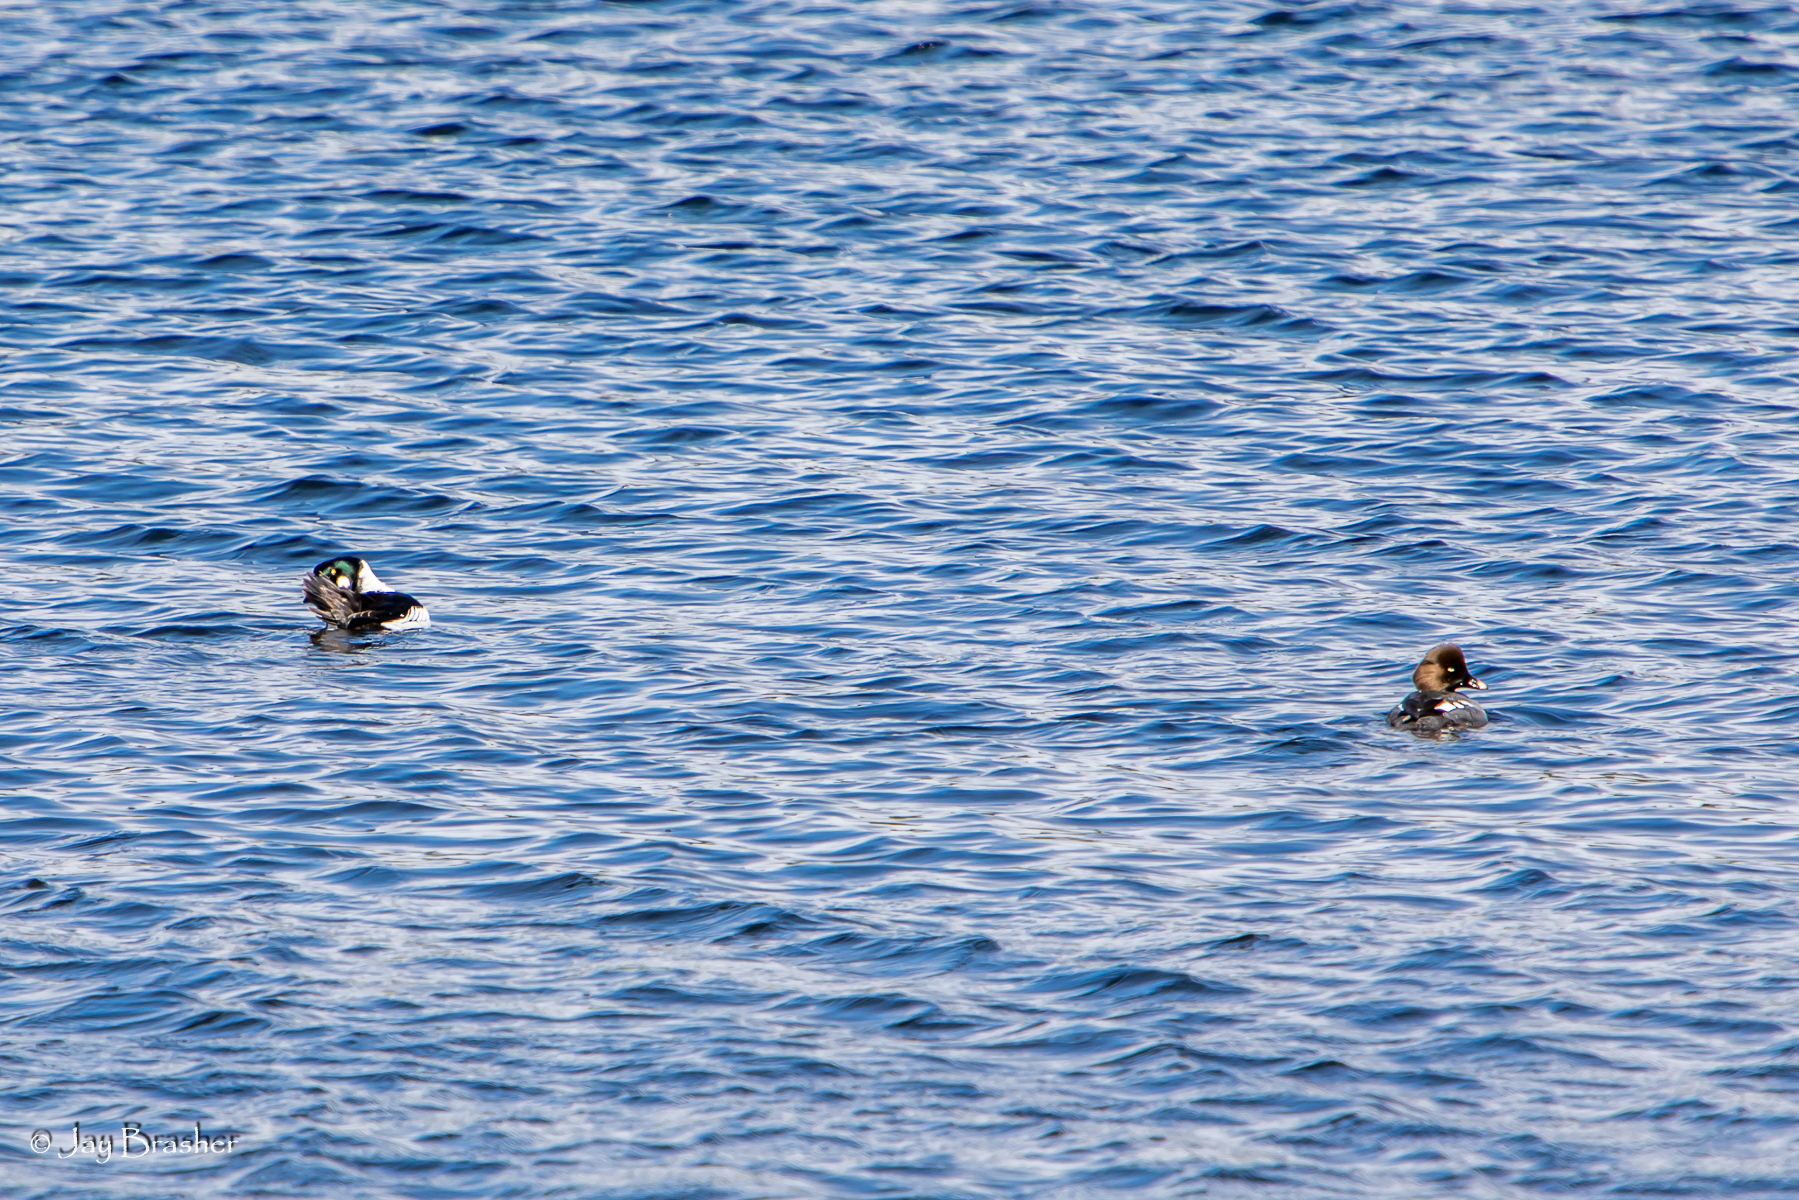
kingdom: Animalia
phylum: Chordata
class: Aves
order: Anseriformes
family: Anatidae
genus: Bucephala
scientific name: Bucephala clangula
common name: Common goldeneye
